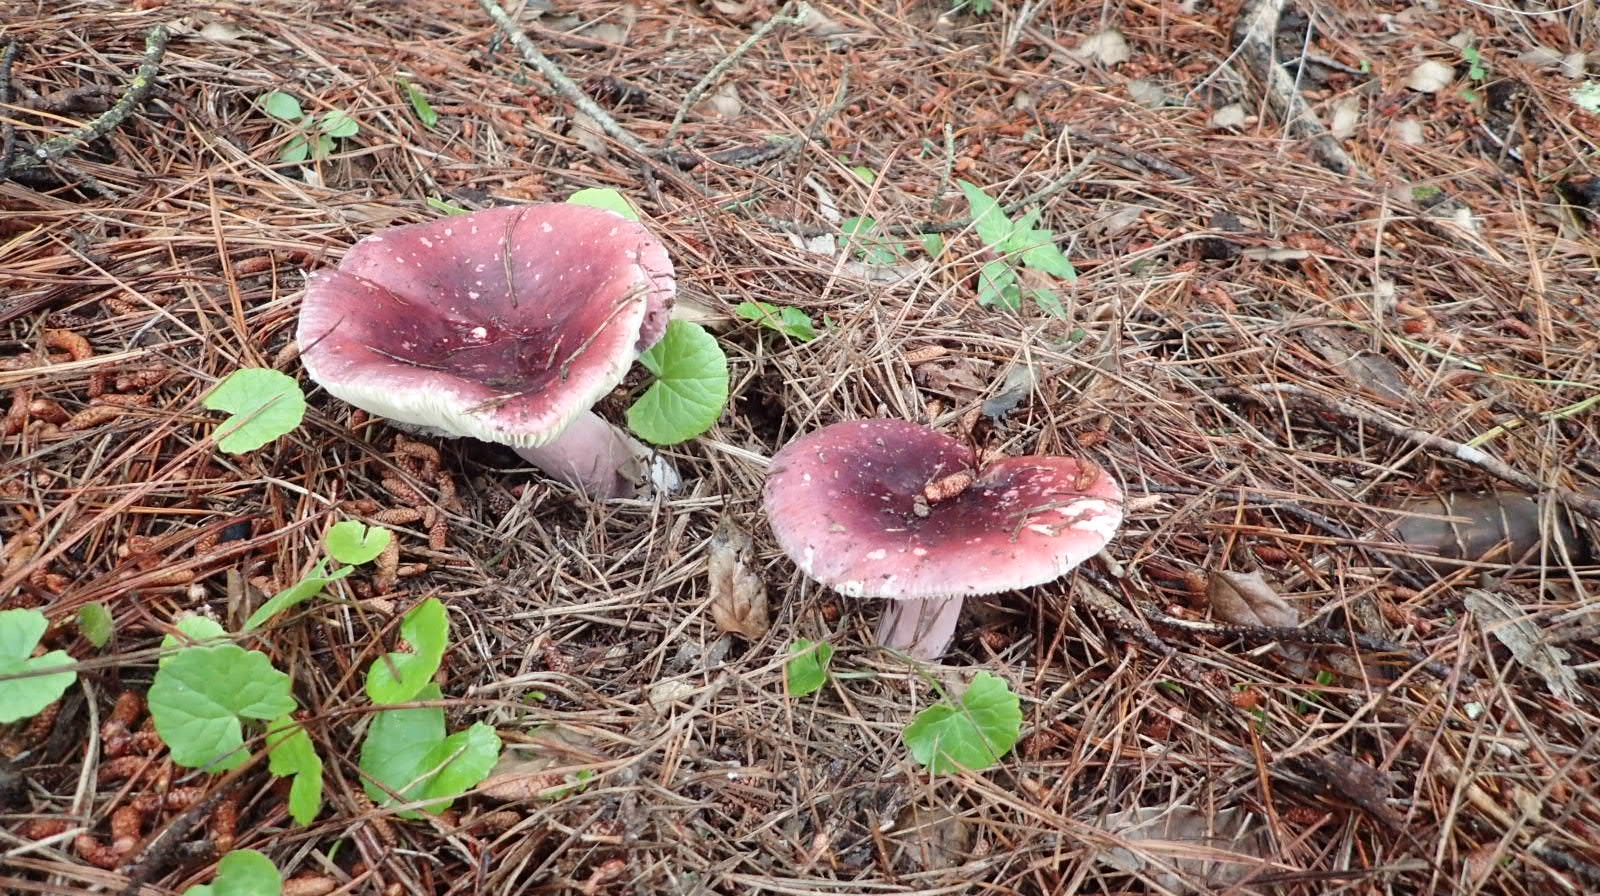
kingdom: Fungi
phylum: Basidiomycota
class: Agaricomycetes
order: Russulales
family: Russulaceae
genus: Russula
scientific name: Russula sardonia
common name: Primrose brittlegill
